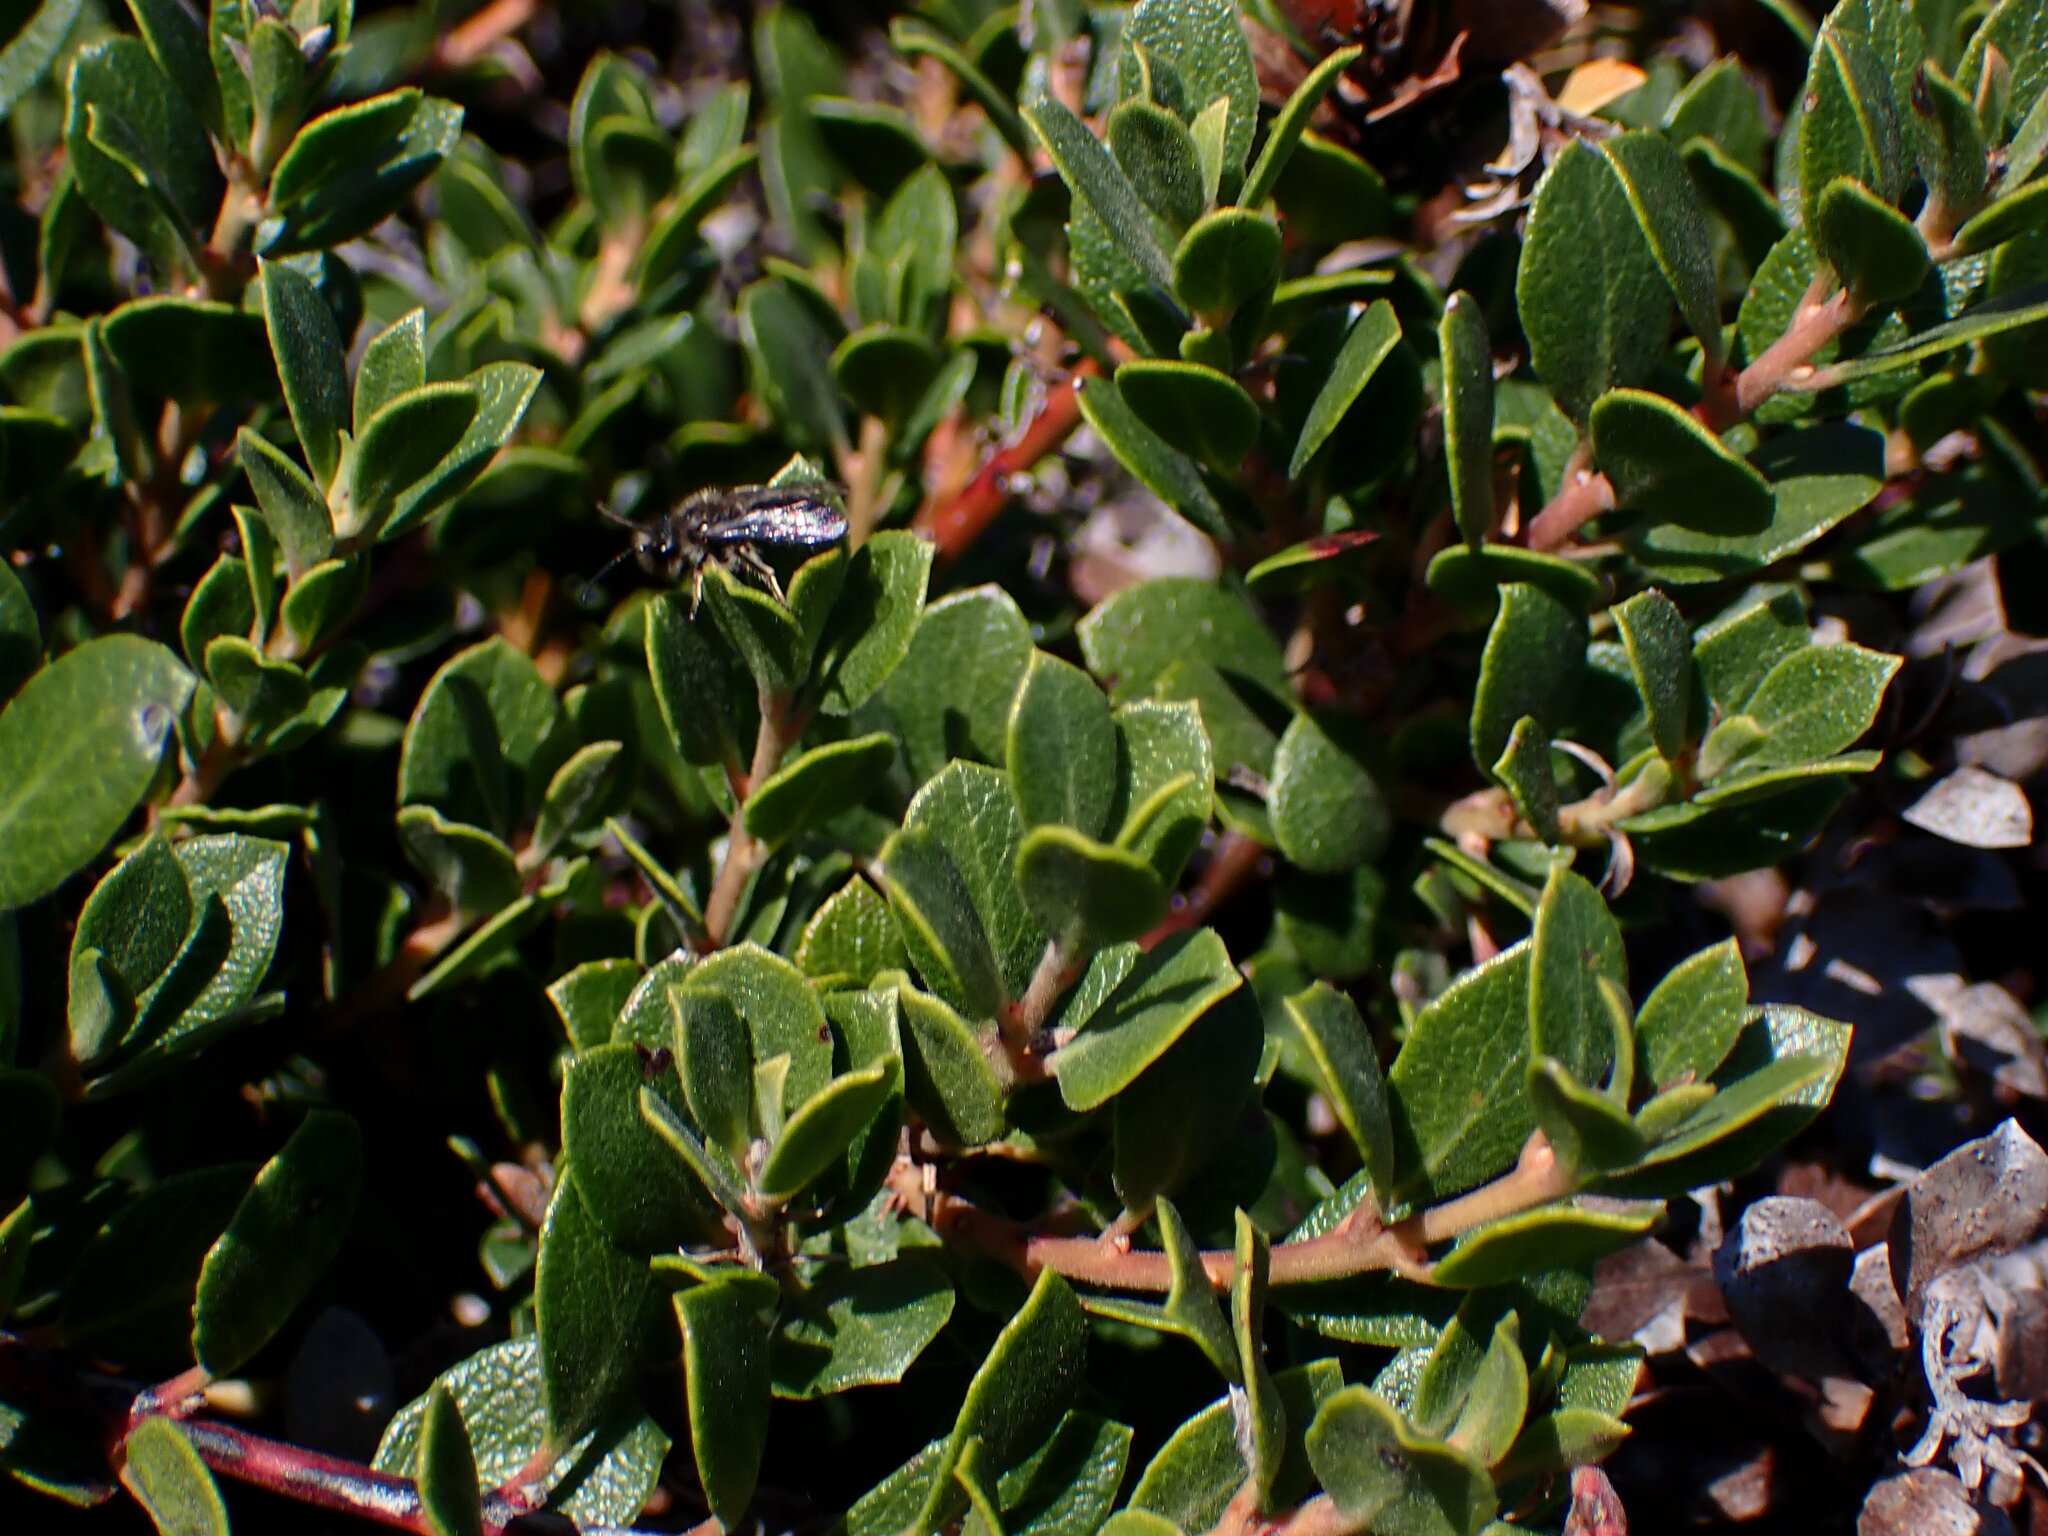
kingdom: Plantae
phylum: Tracheophyta
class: Magnoliopsida
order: Ericales
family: Ericaceae
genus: Arctostaphylos
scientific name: Arctostaphylos pacifica
